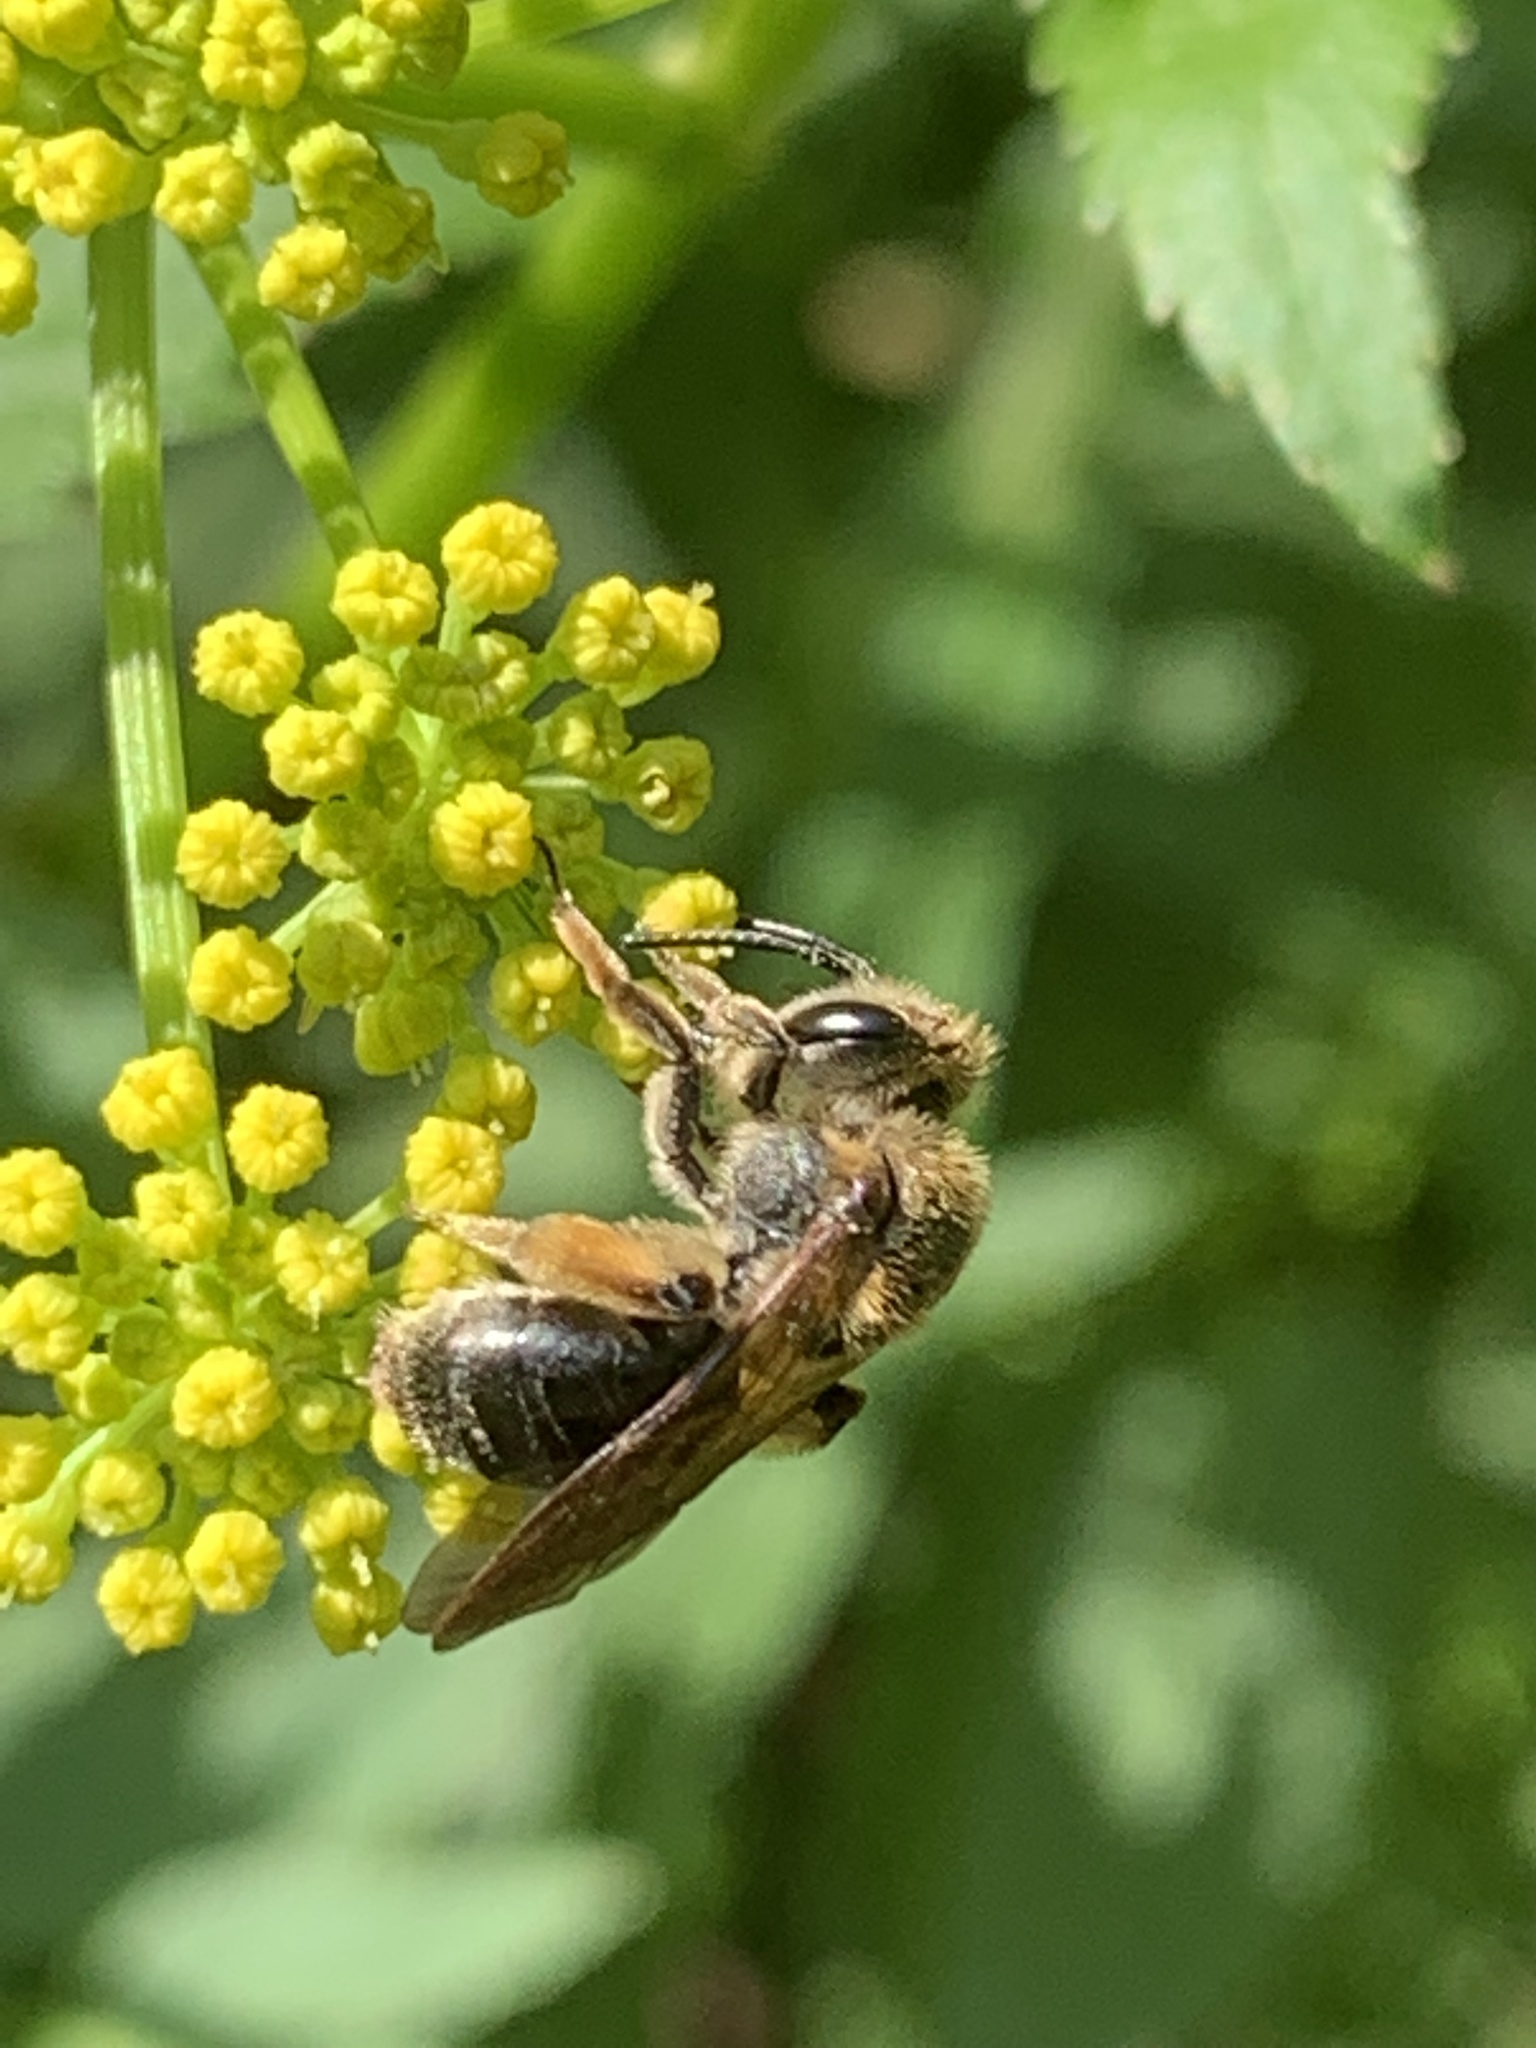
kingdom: Animalia
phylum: Arthropoda
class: Insecta
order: Hymenoptera
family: Andrenidae
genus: Andrena
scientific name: Andrena
